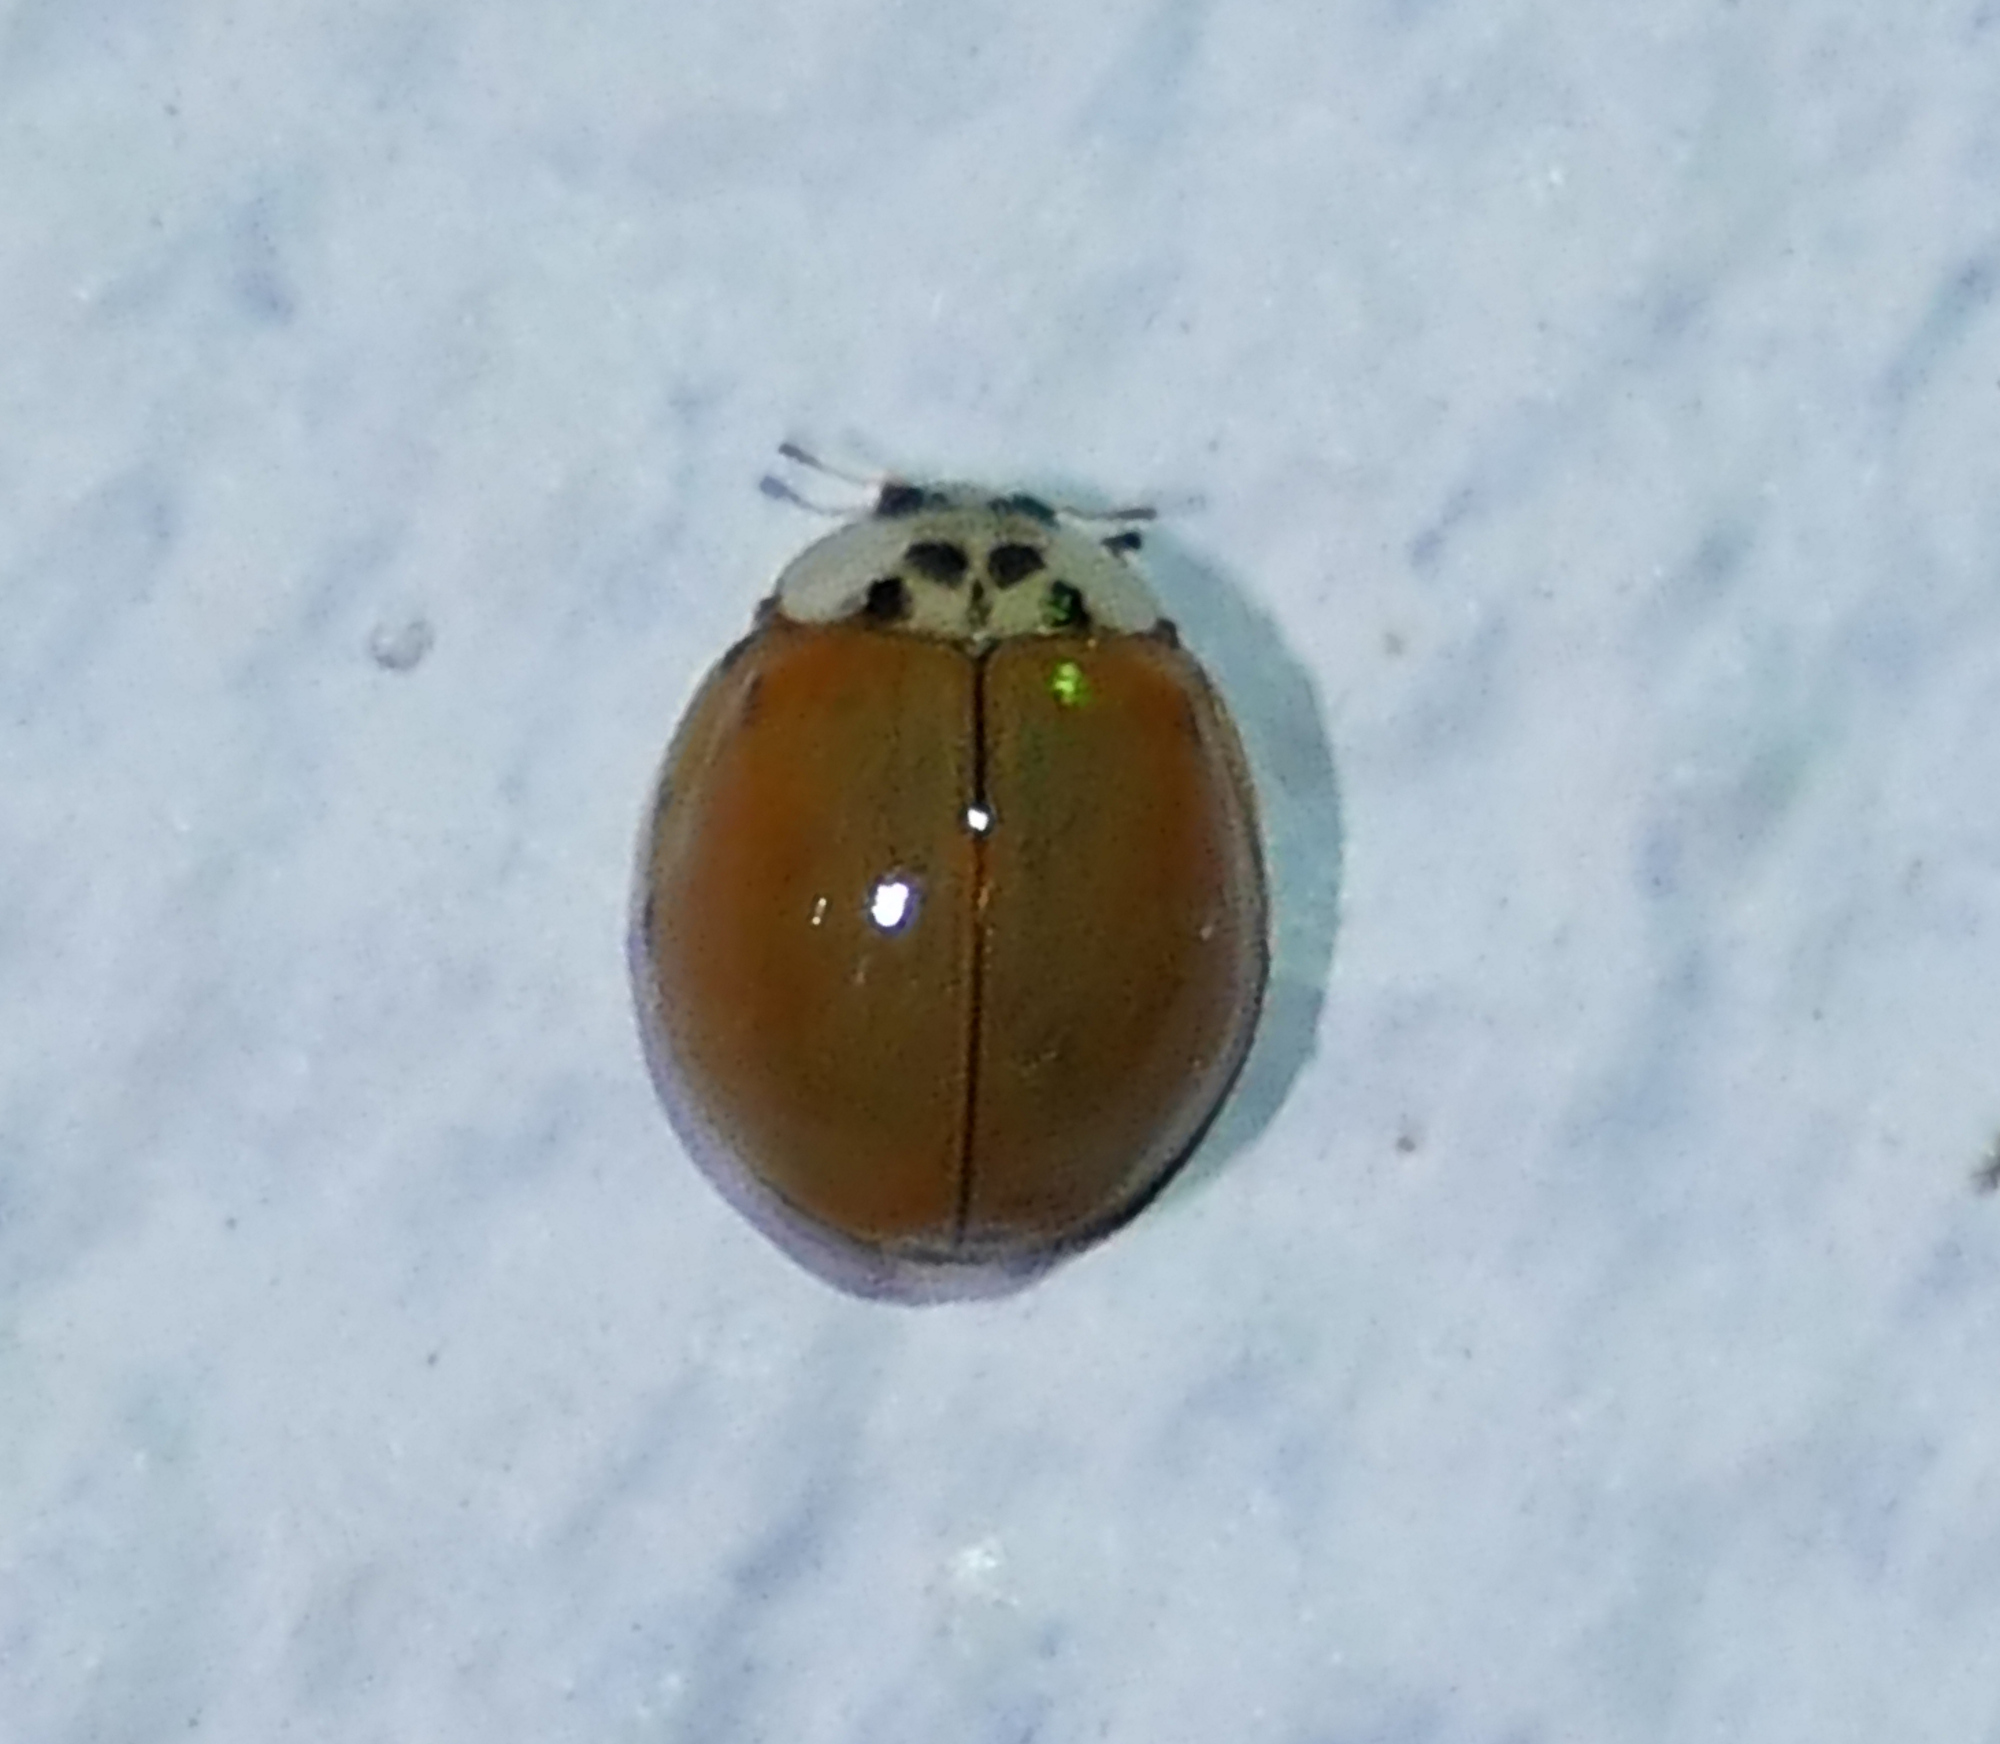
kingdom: Animalia
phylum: Arthropoda
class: Insecta
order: Coleoptera
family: Coccinellidae
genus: Harmonia
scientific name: Harmonia axyridis
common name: Harlequin ladybird
